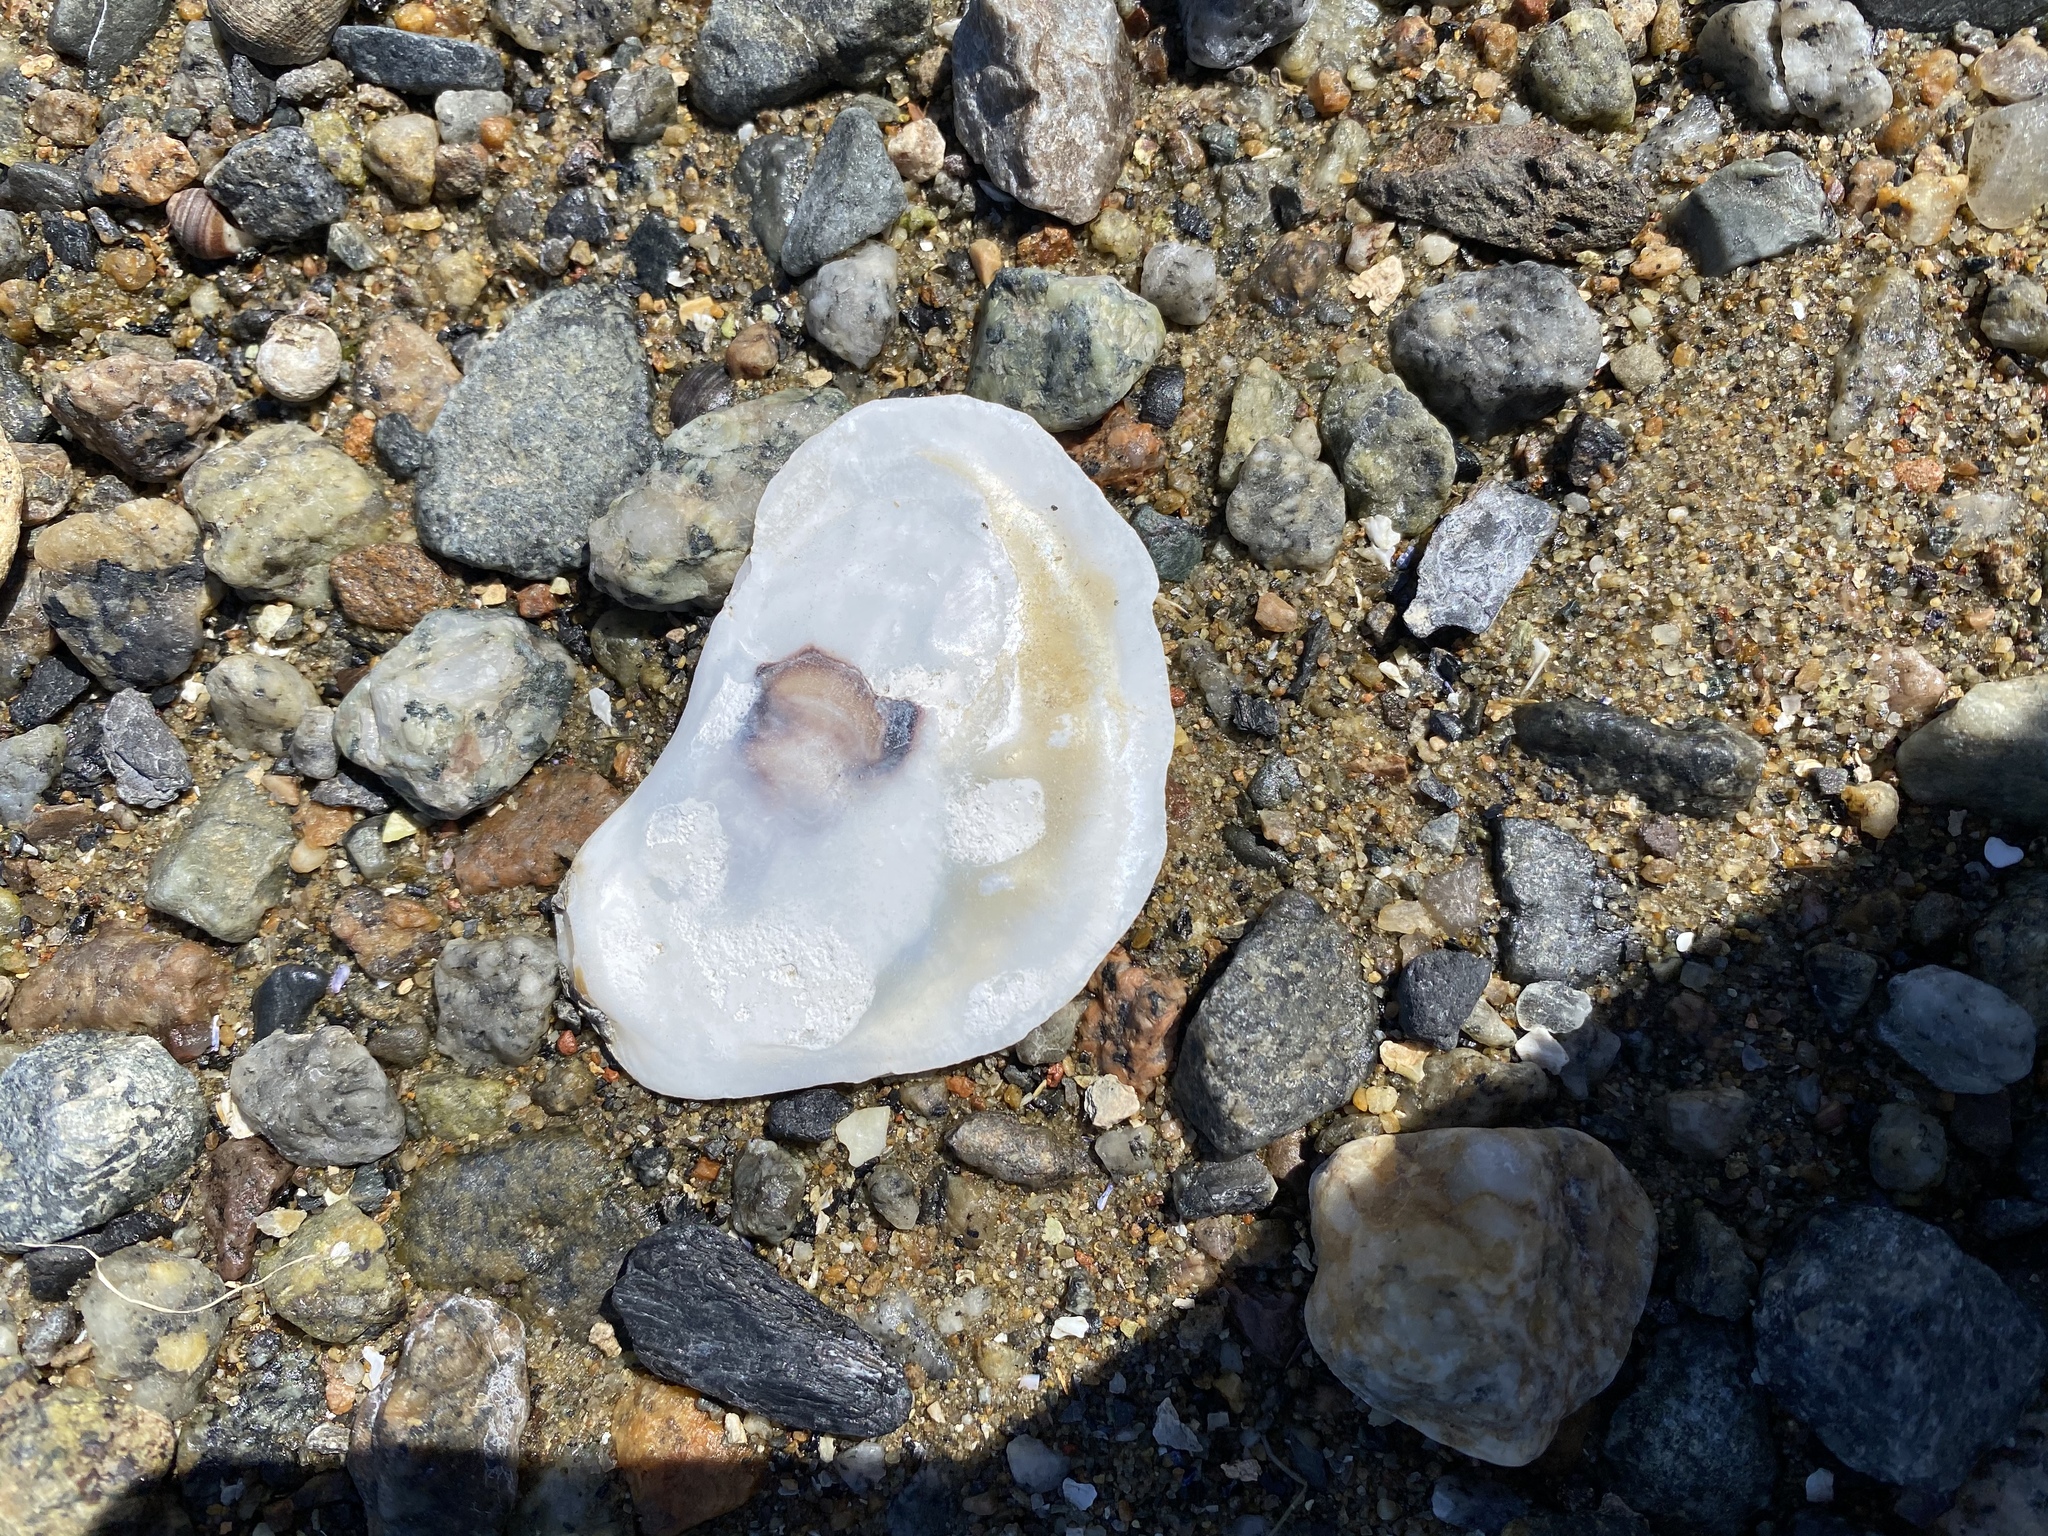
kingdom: Animalia
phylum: Mollusca
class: Bivalvia
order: Ostreida
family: Ostreidae
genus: Crassostrea
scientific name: Crassostrea virginica
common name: American oyster
